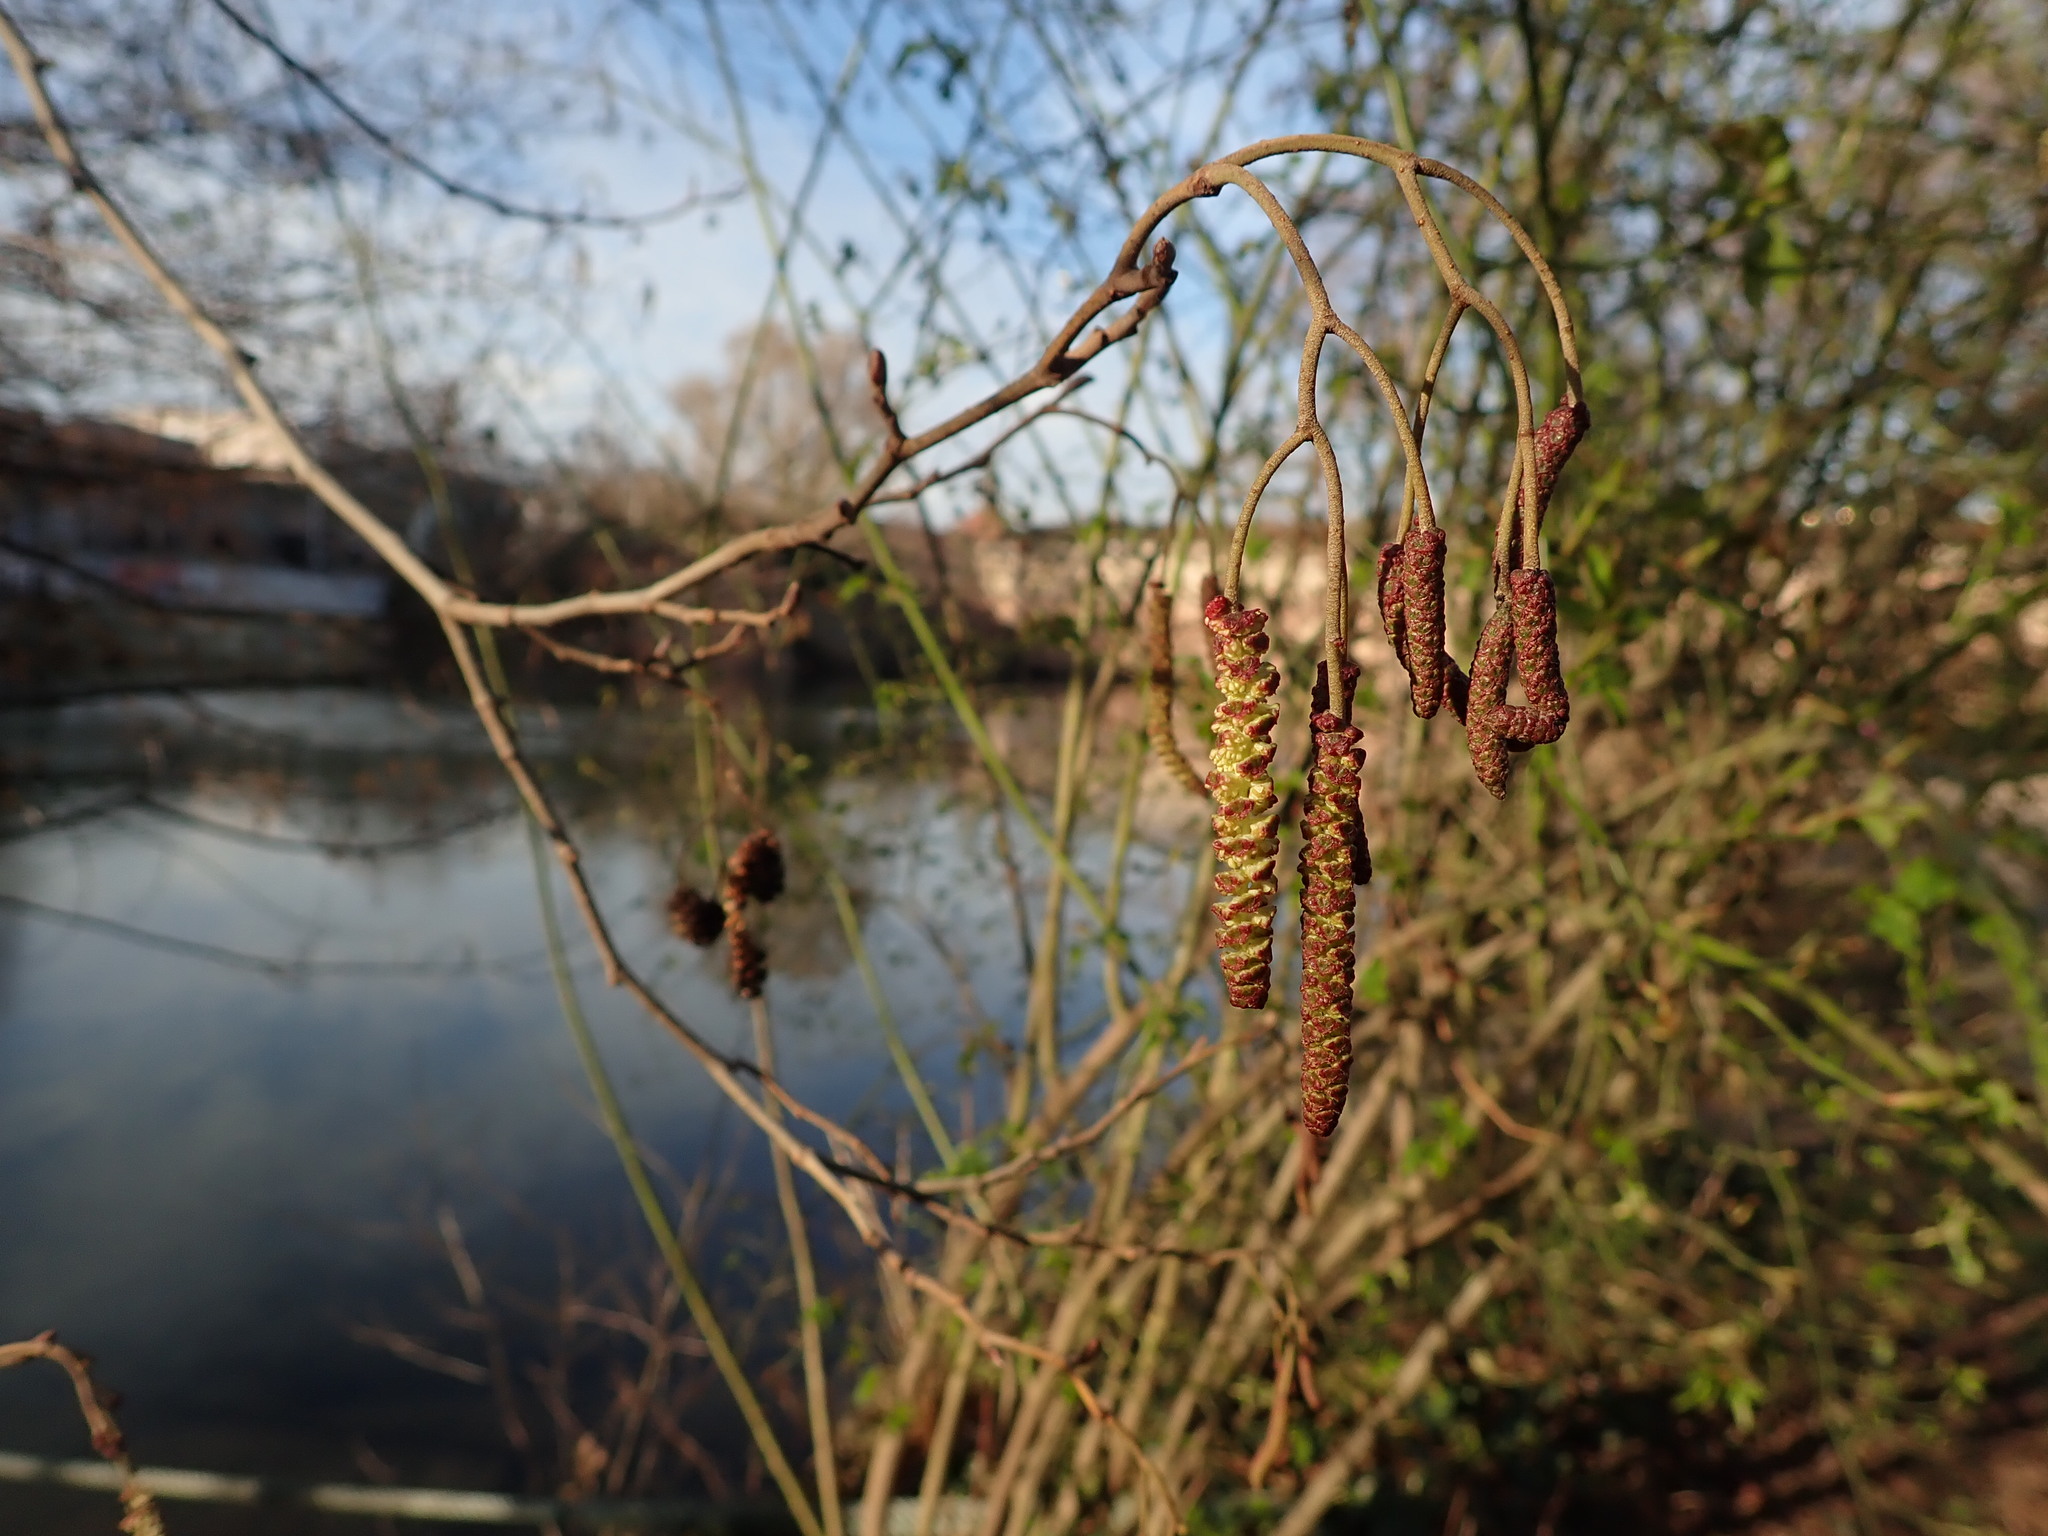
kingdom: Plantae
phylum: Tracheophyta
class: Magnoliopsida
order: Fagales
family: Betulaceae
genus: Alnus
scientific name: Alnus glutinosa
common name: Black alder
